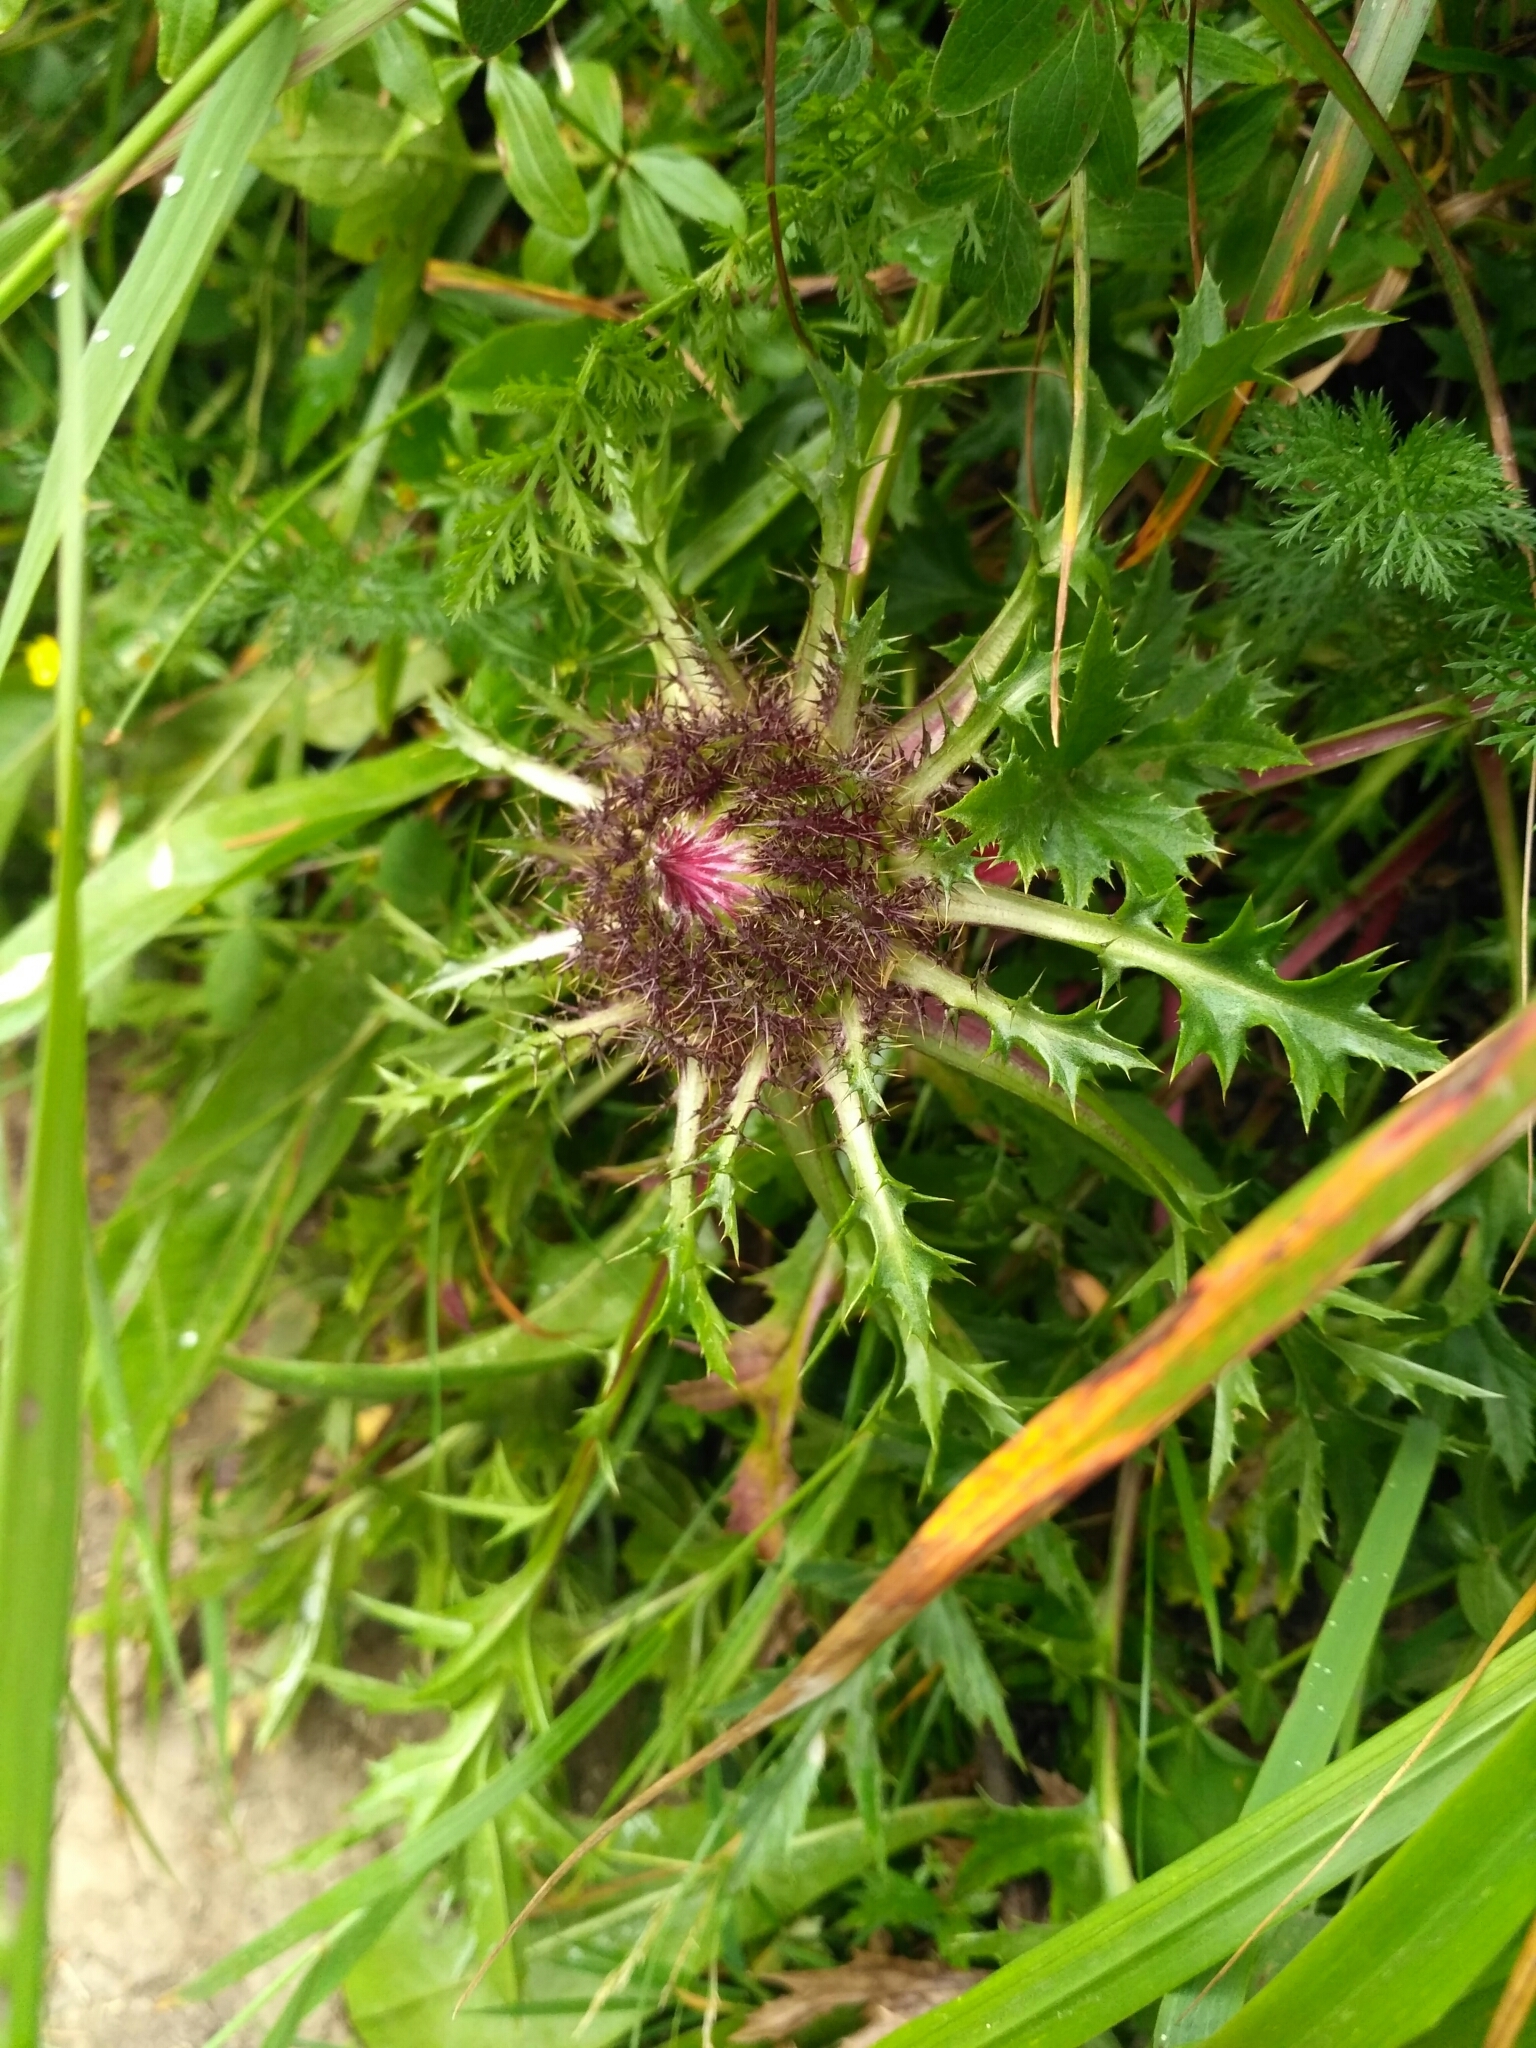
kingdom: Plantae
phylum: Tracheophyta
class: Magnoliopsida
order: Asterales
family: Asteraceae
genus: Carlina
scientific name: Carlina acaulis
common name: Stemless carline thistle
